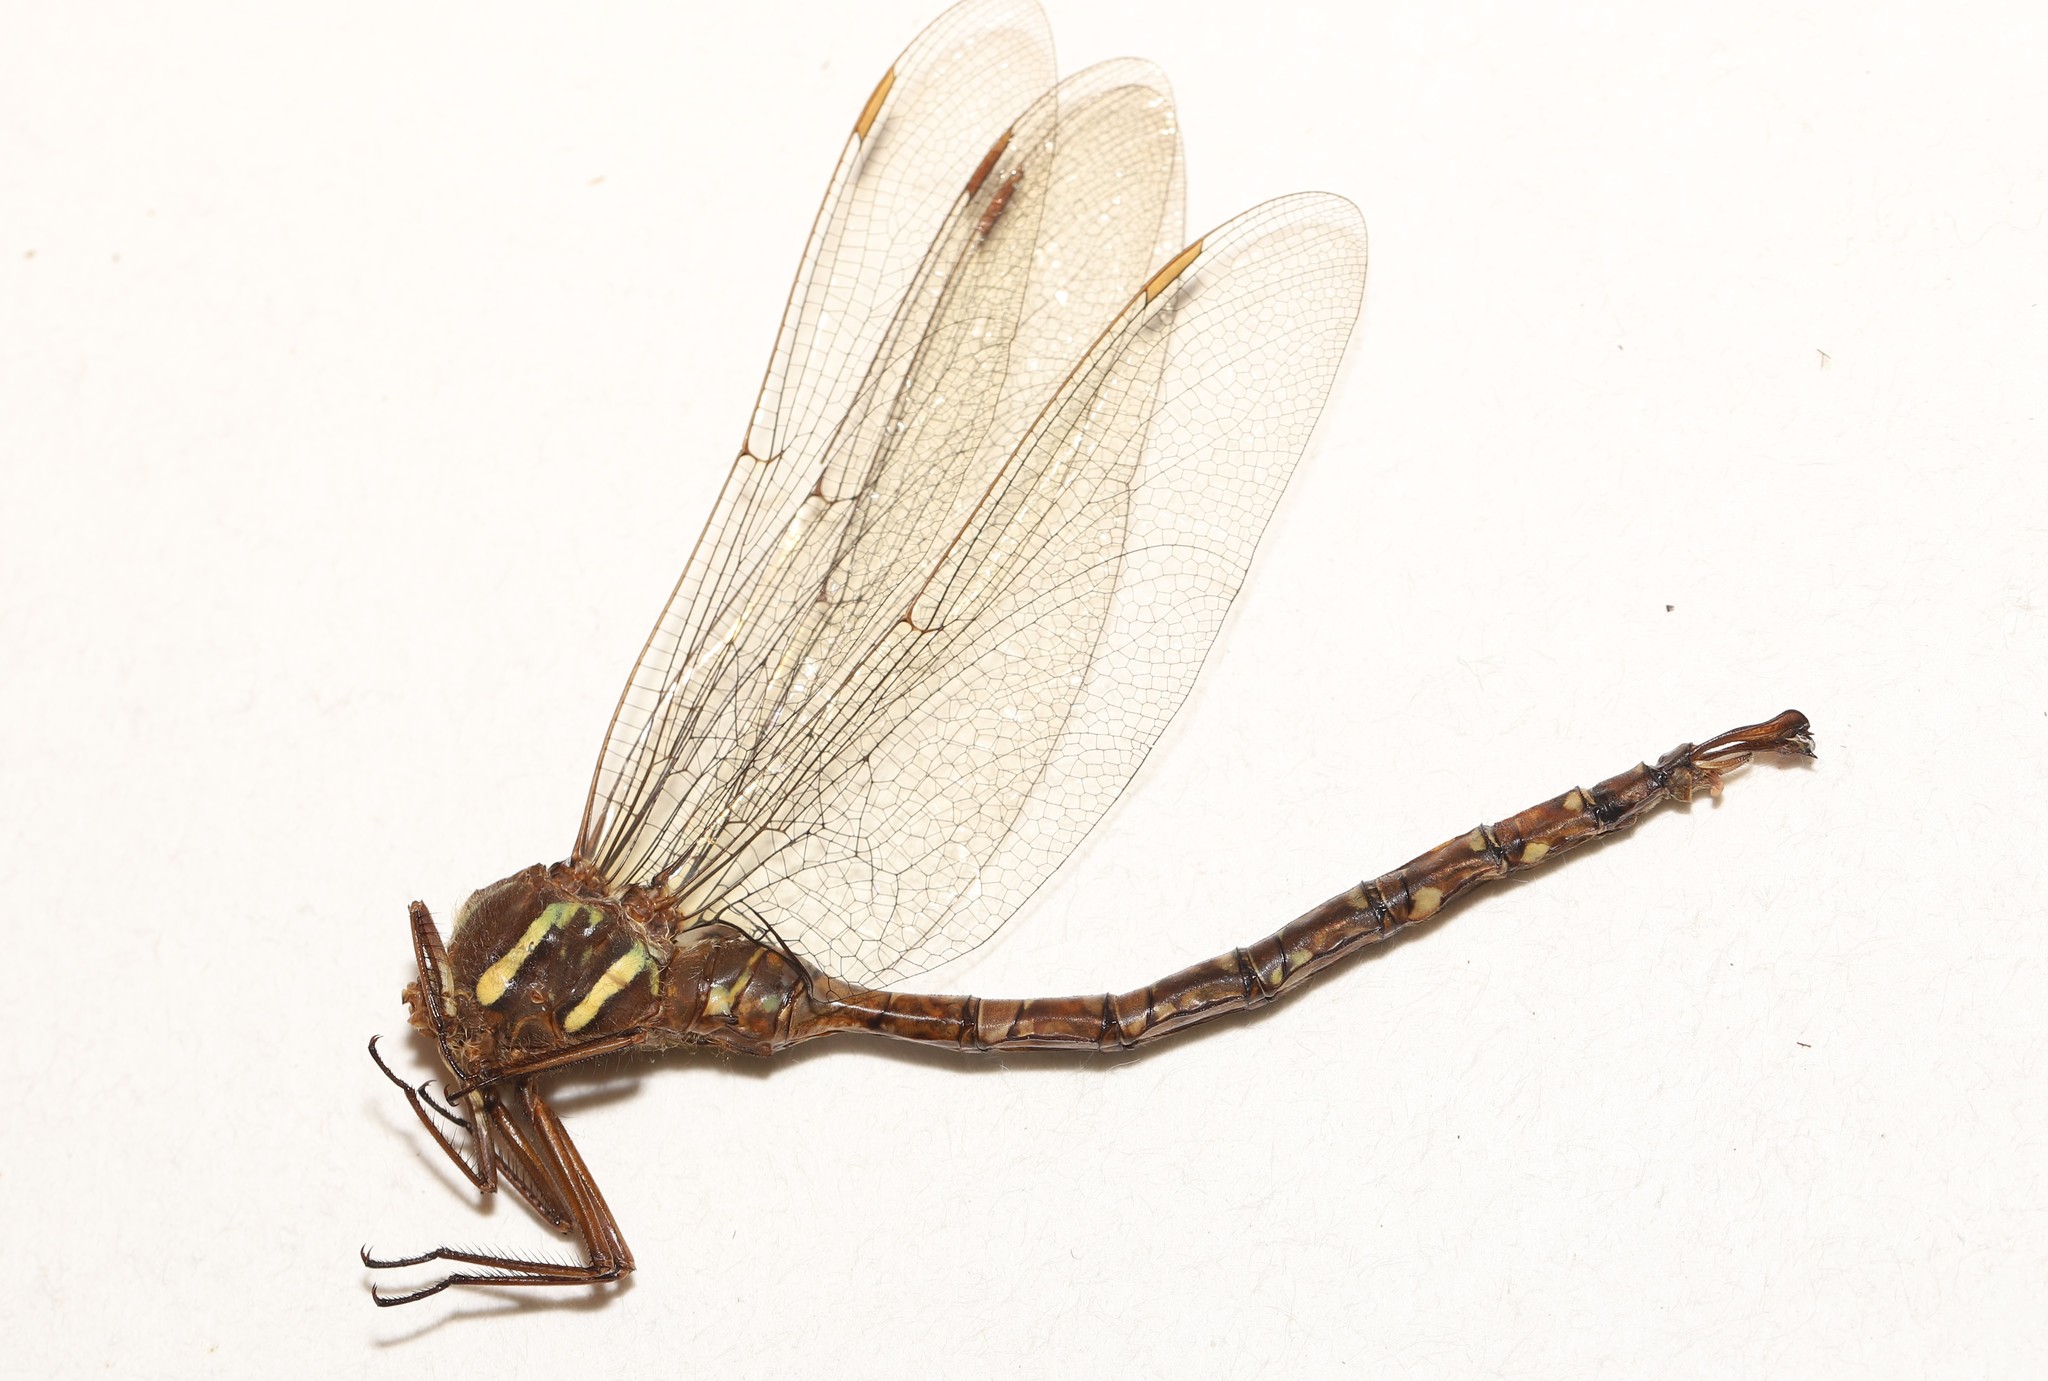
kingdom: Animalia
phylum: Arthropoda
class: Insecta
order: Odonata
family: Aeshnidae
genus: Aeshna
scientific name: Aeshna umbrosa
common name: Shadow darner
